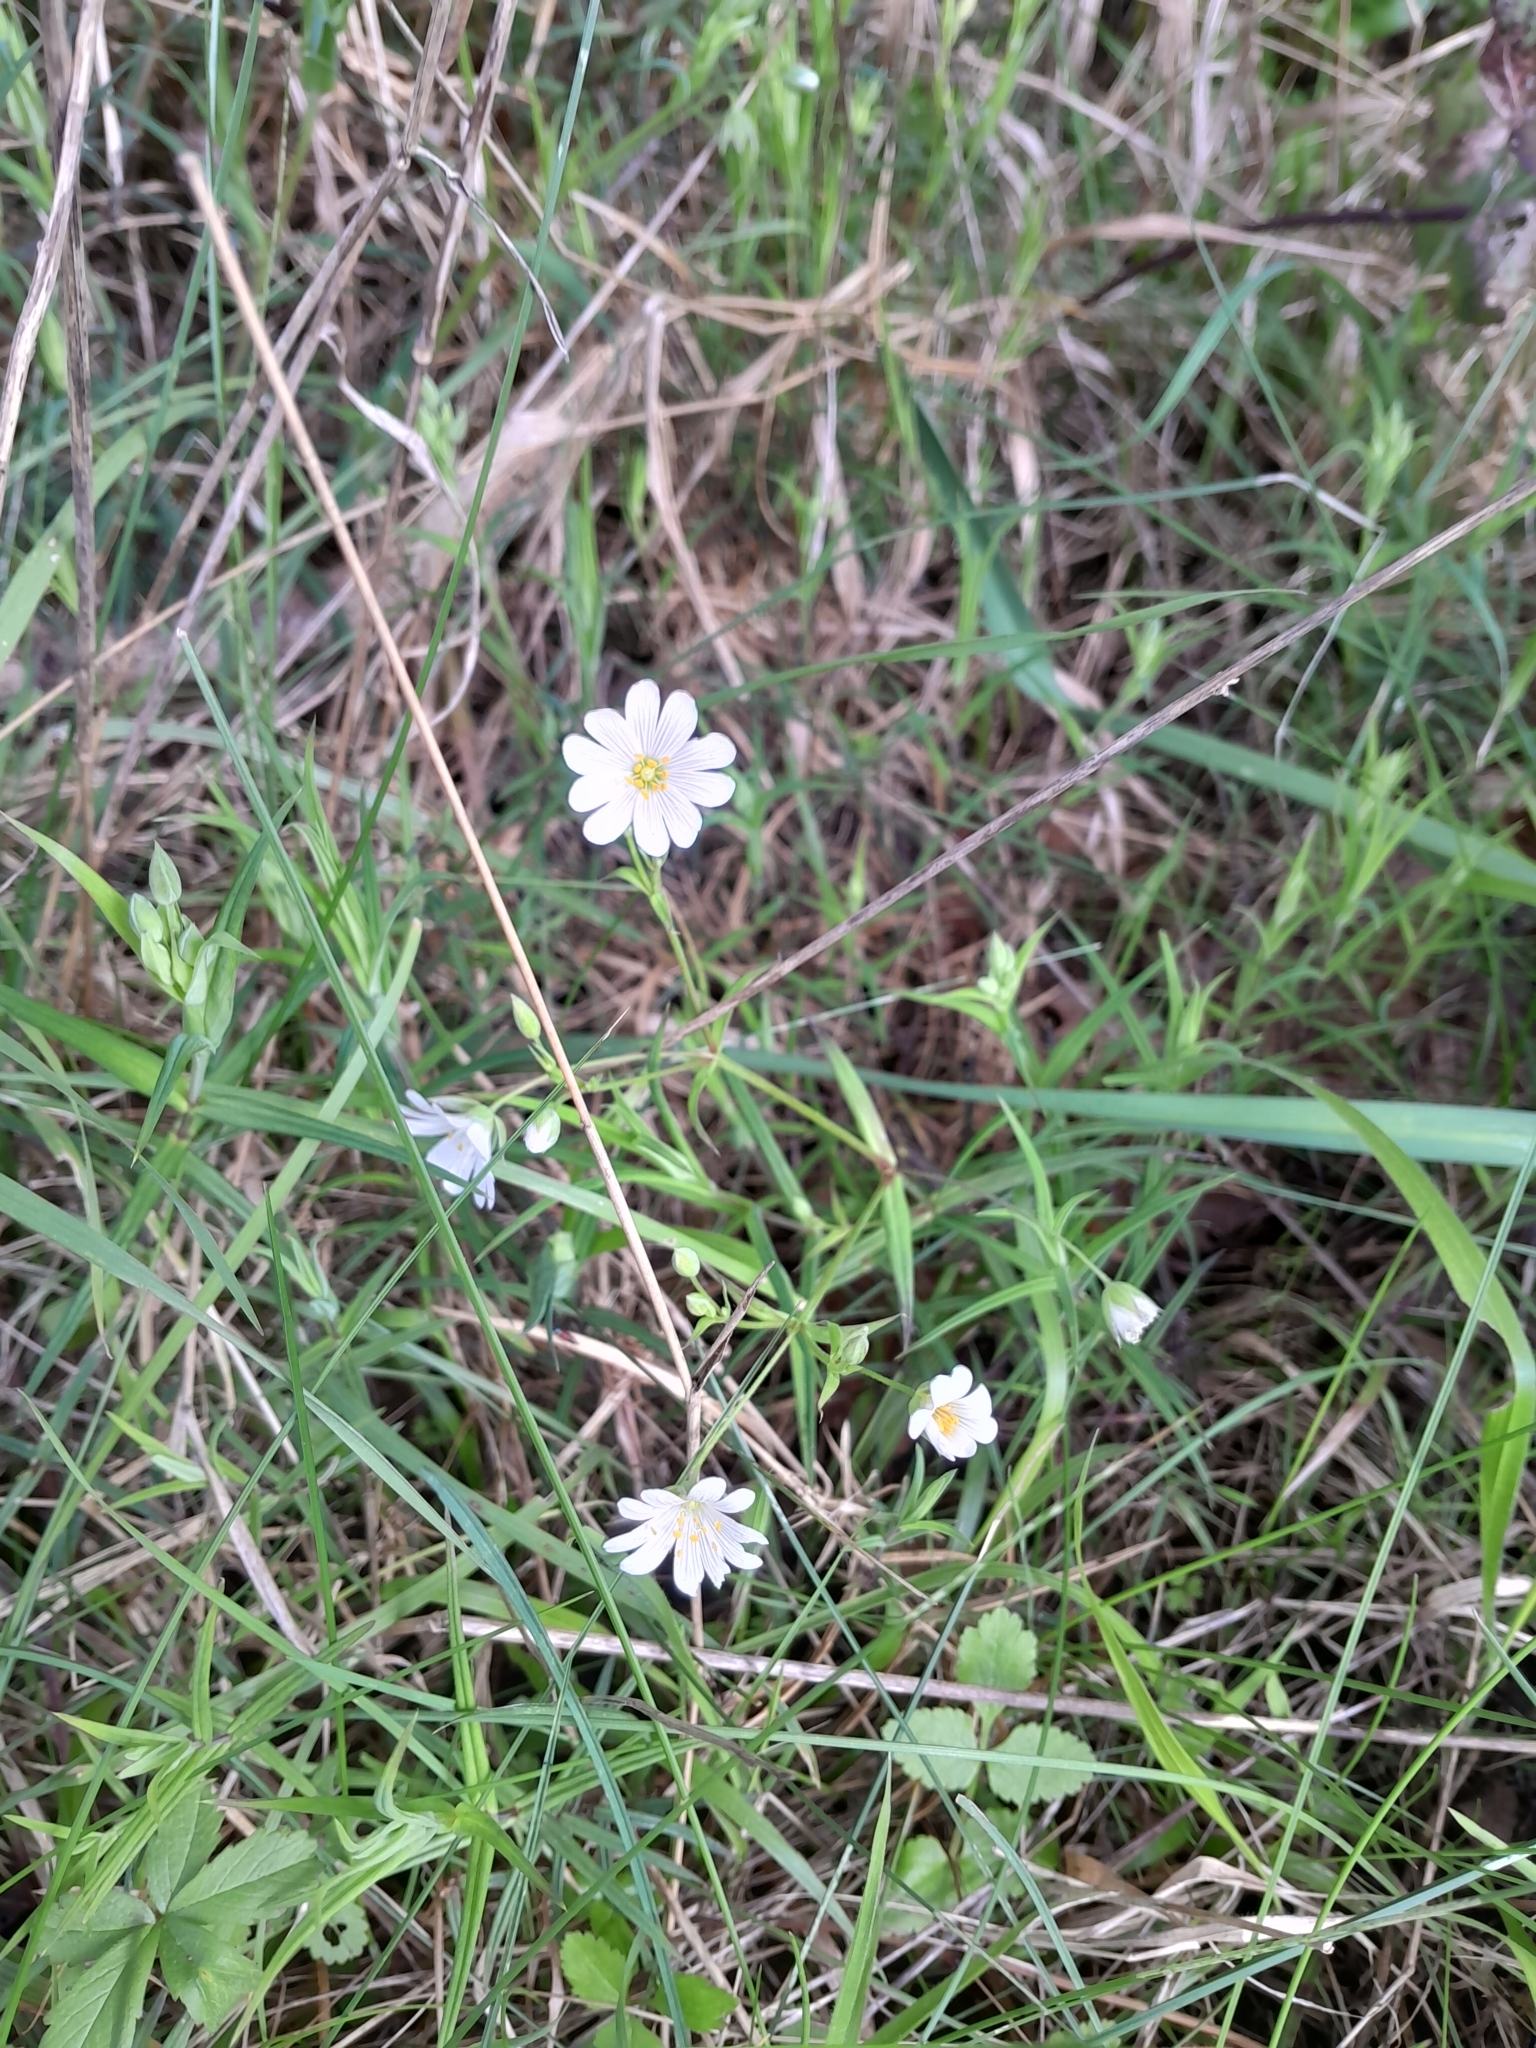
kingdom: Plantae
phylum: Tracheophyta
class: Magnoliopsida
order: Caryophyllales
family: Caryophyllaceae
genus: Rabelera
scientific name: Rabelera holostea
